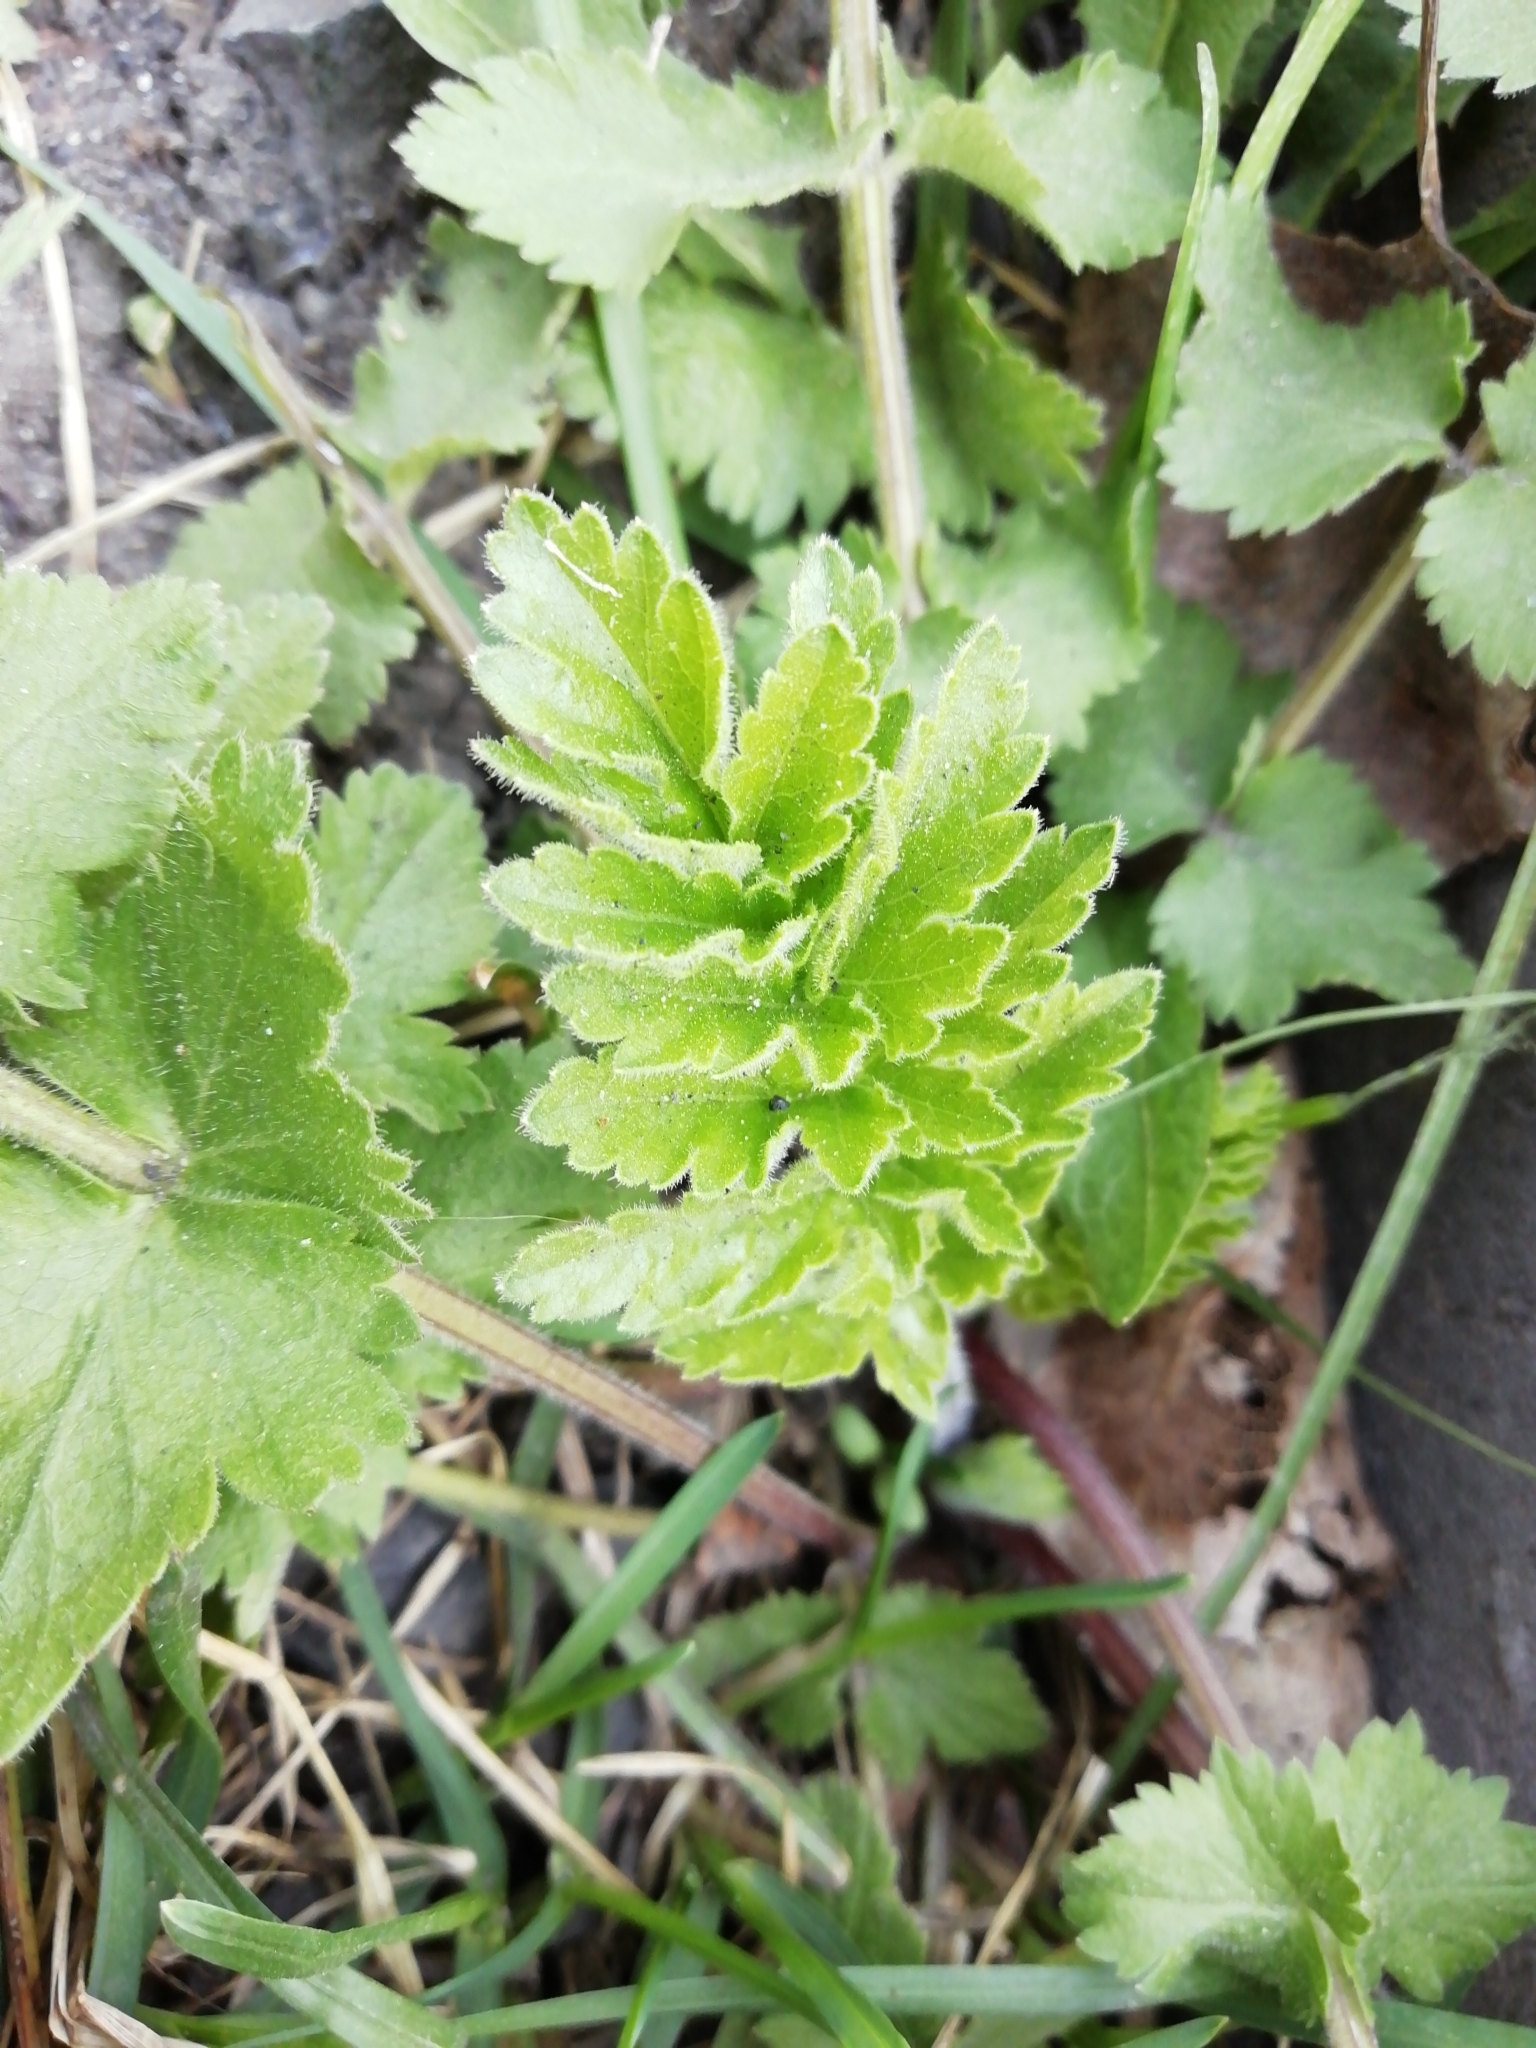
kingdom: Plantae
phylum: Tracheophyta
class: Magnoliopsida
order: Apiales
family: Apiaceae
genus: Pimpinella
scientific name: Pimpinella saxifraga
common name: Burnet-saxifrage
